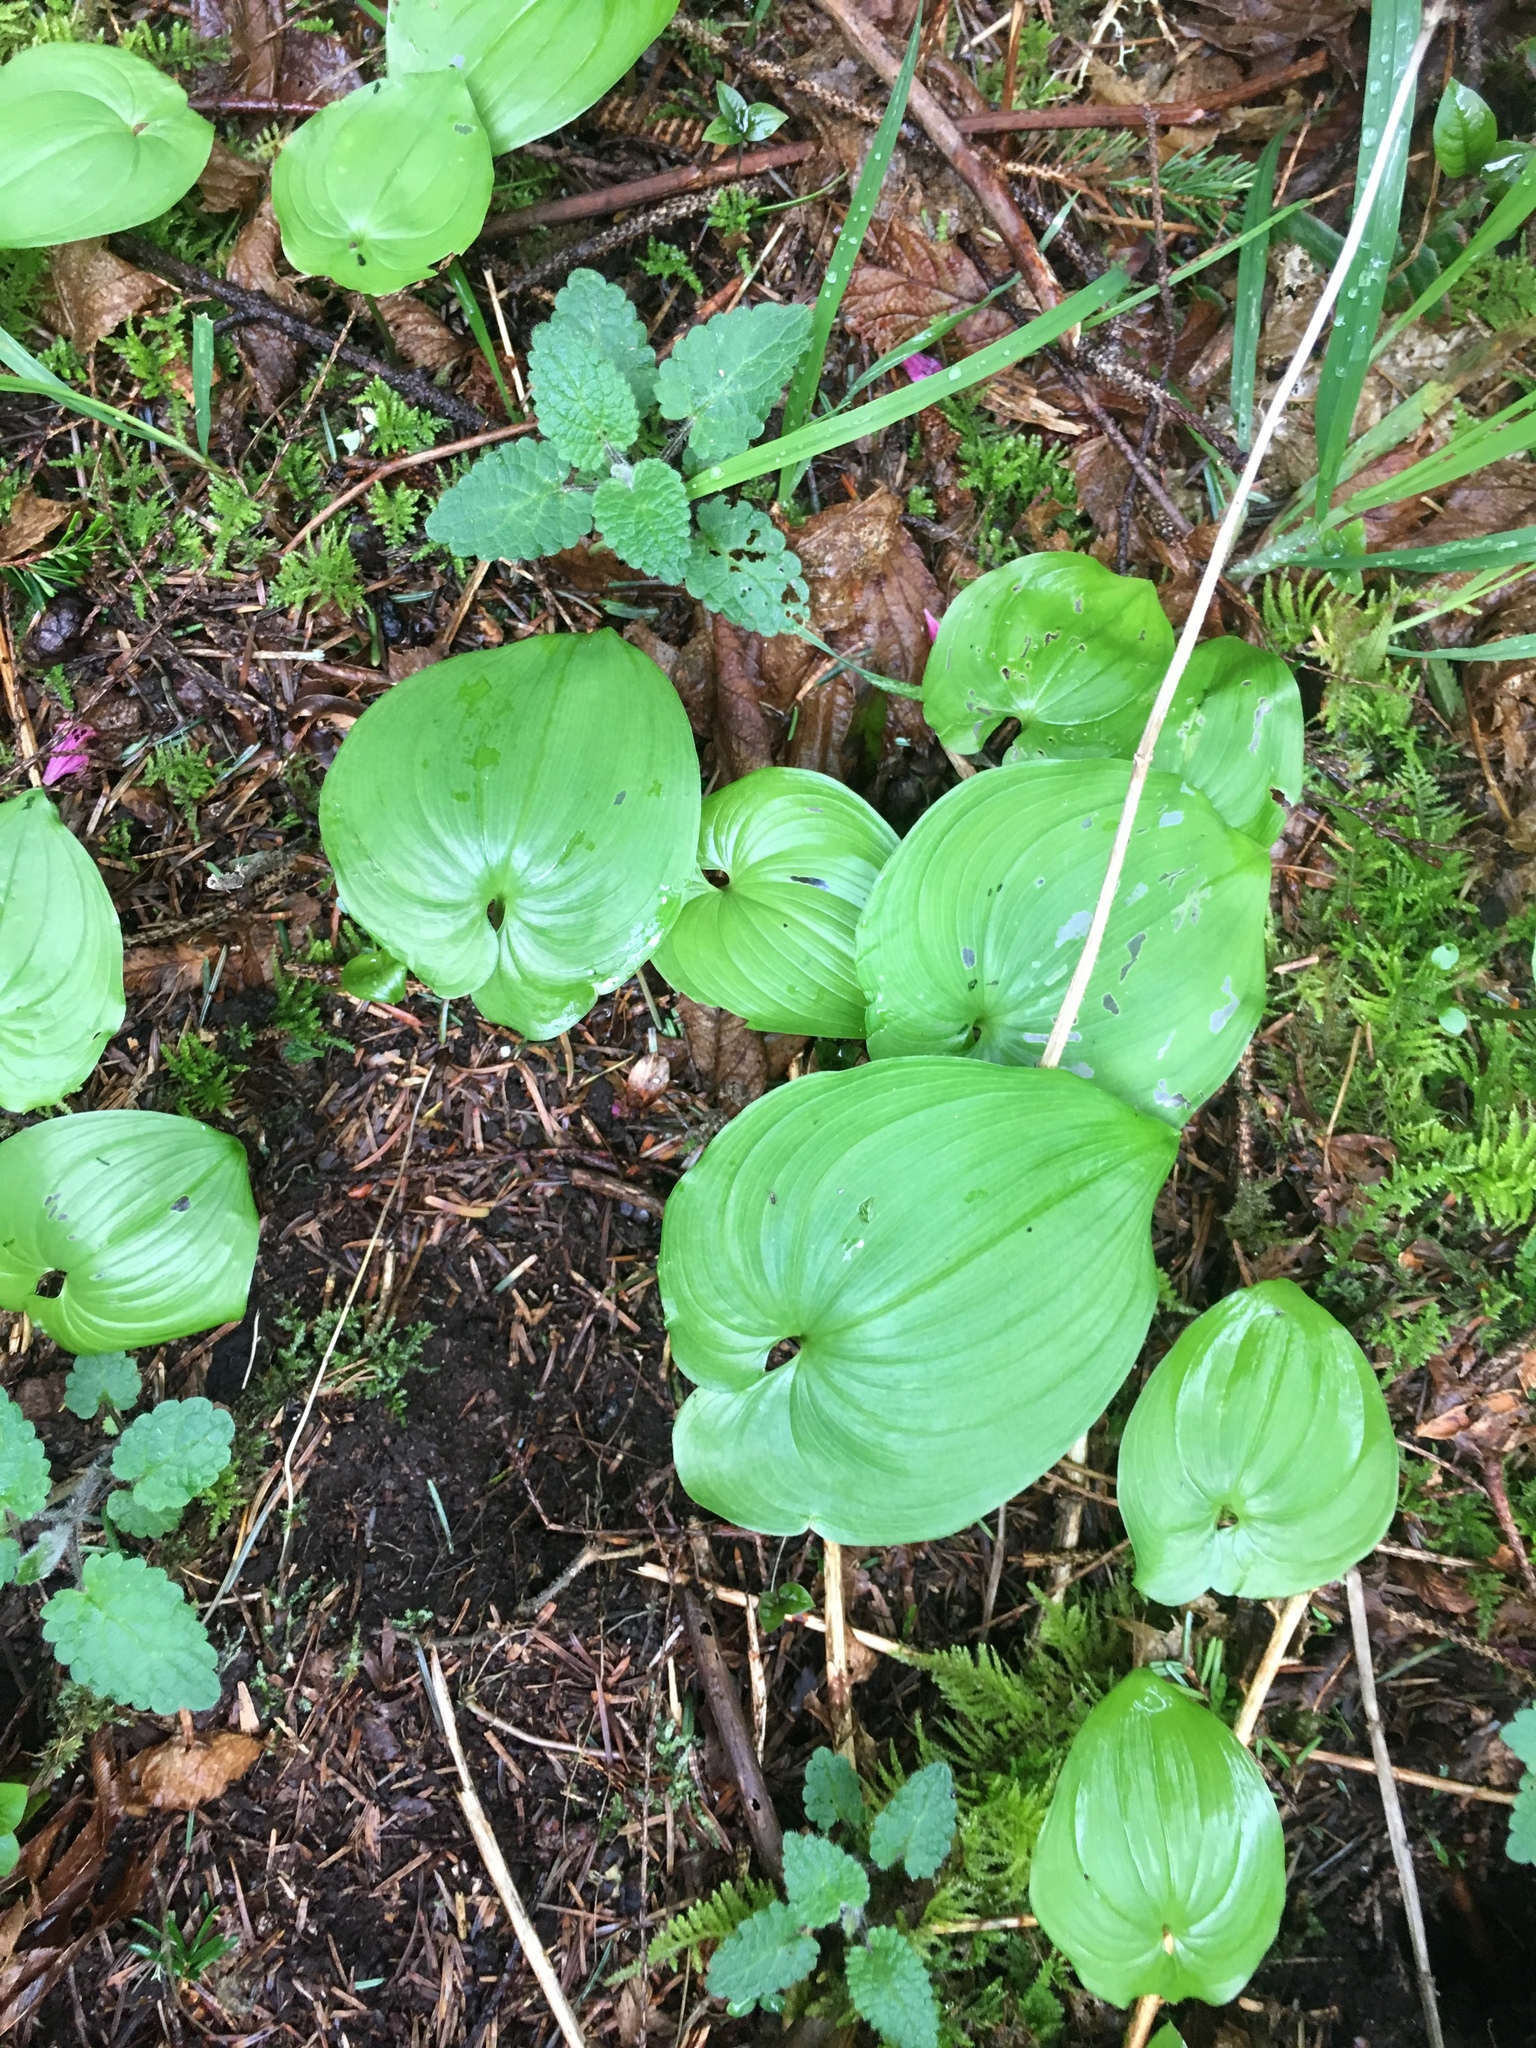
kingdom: Plantae
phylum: Tracheophyta
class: Liliopsida
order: Asparagales
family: Asparagaceae
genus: Maianthemum
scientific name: Maianthemum dilatatum
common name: False lily-of-the-valley
